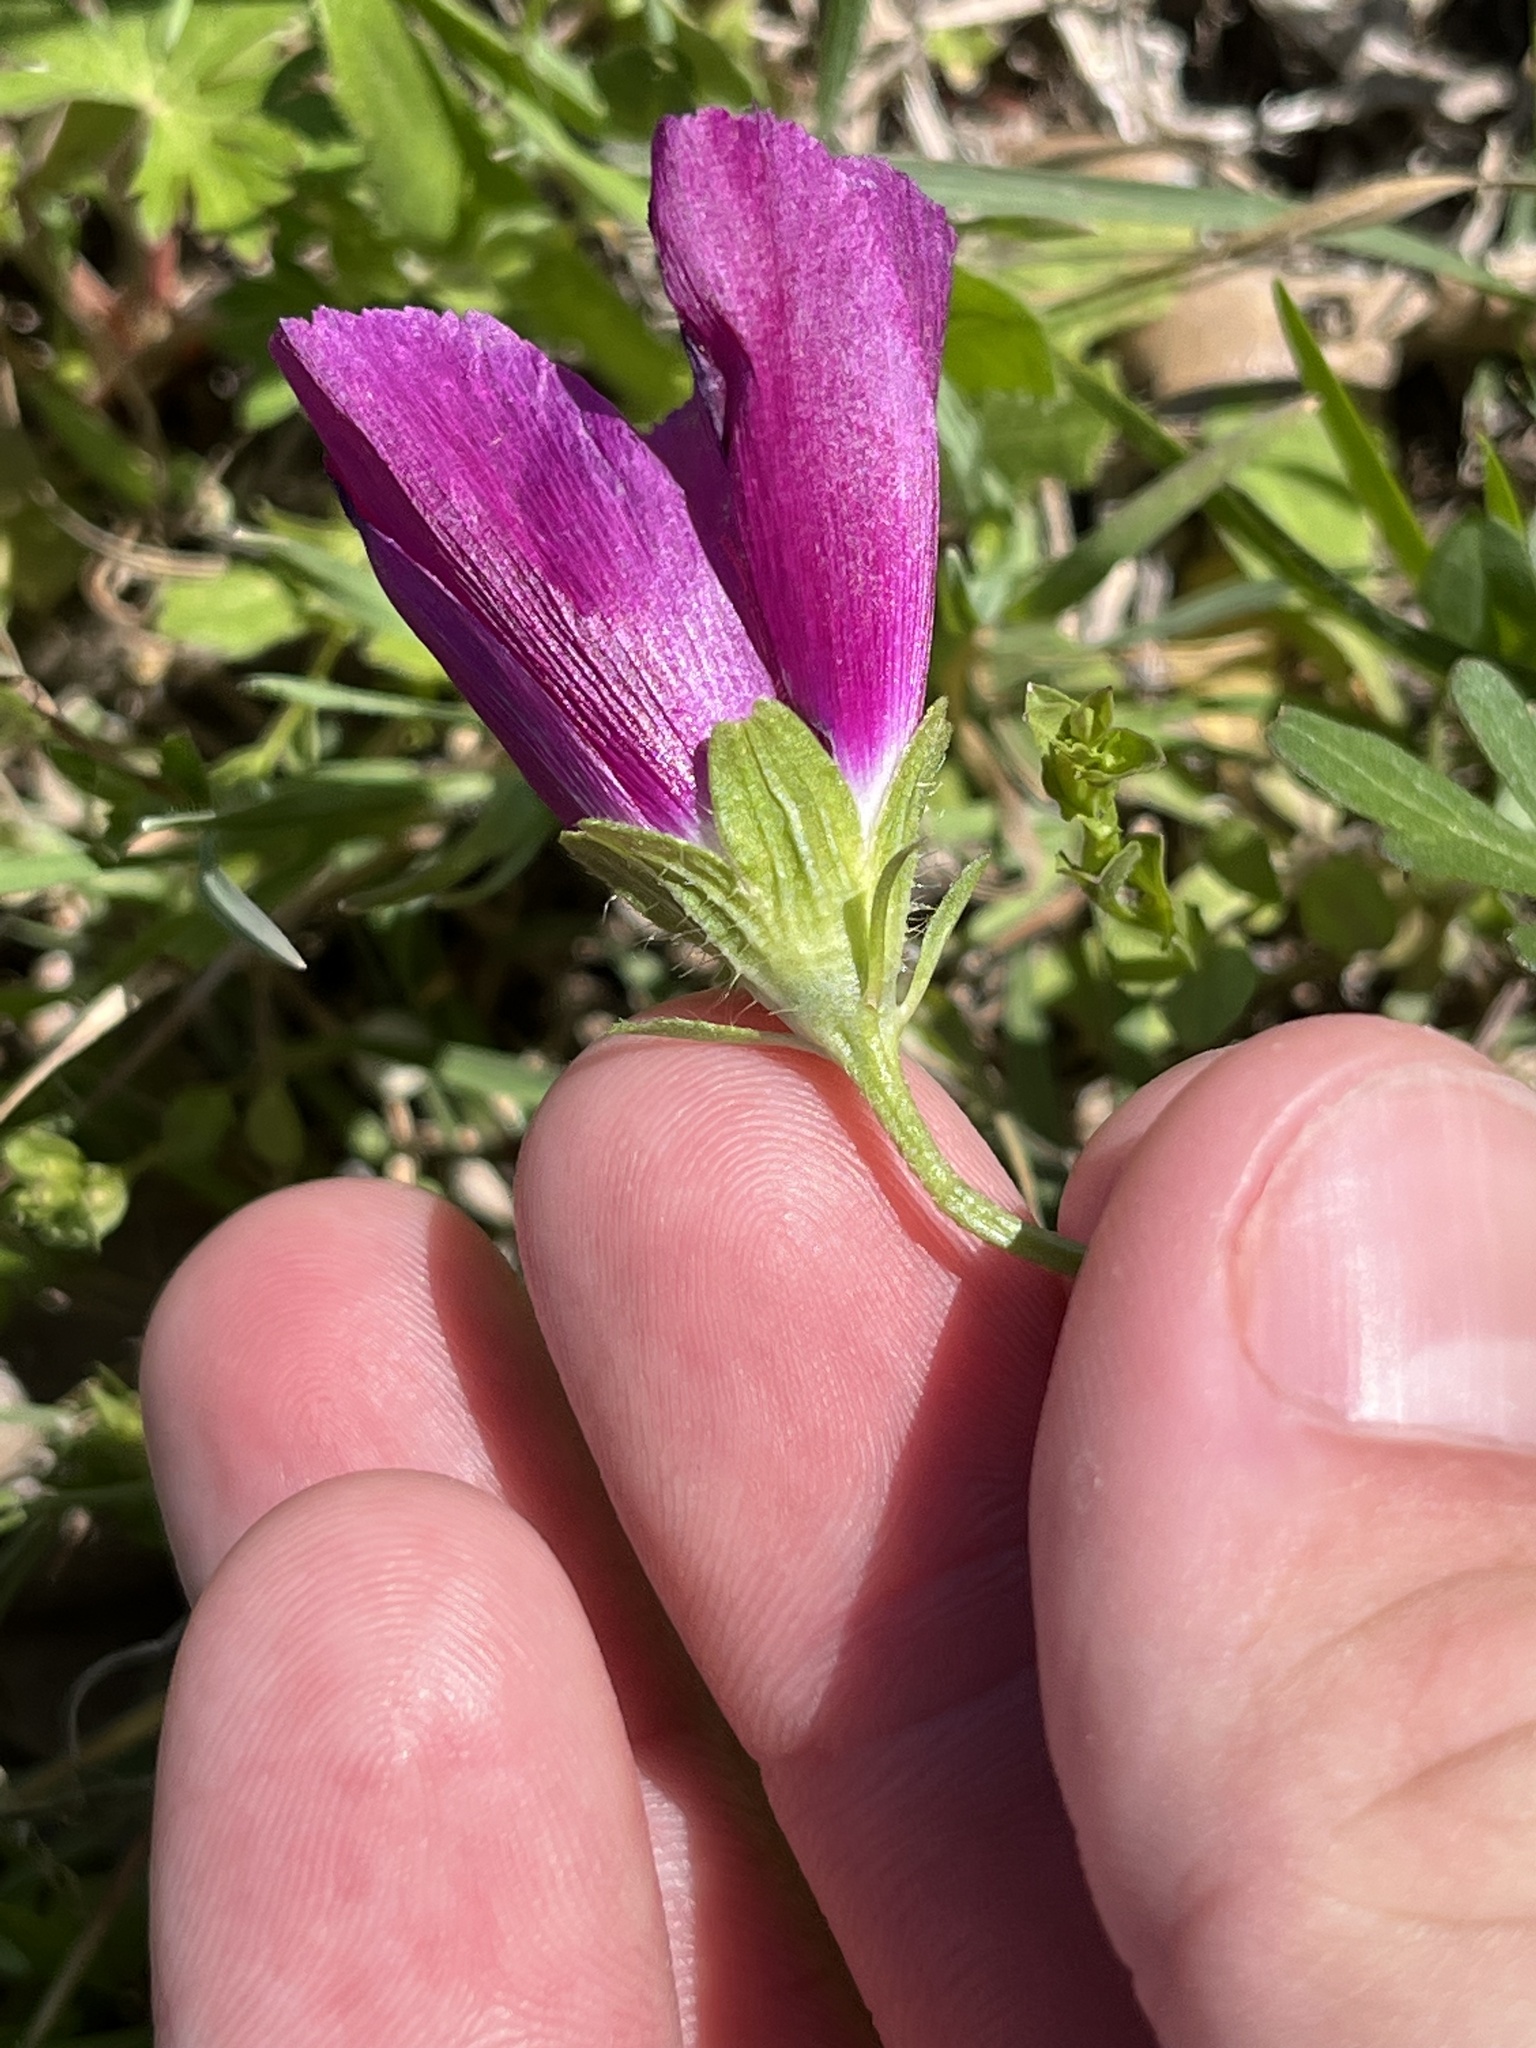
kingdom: Plantae
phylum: Tracheophyta
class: Magnoliopsida
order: Malvales
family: Malvaceae
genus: Callirhoe
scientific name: Callirhoe involucrata
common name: Purple poppy-mallow
